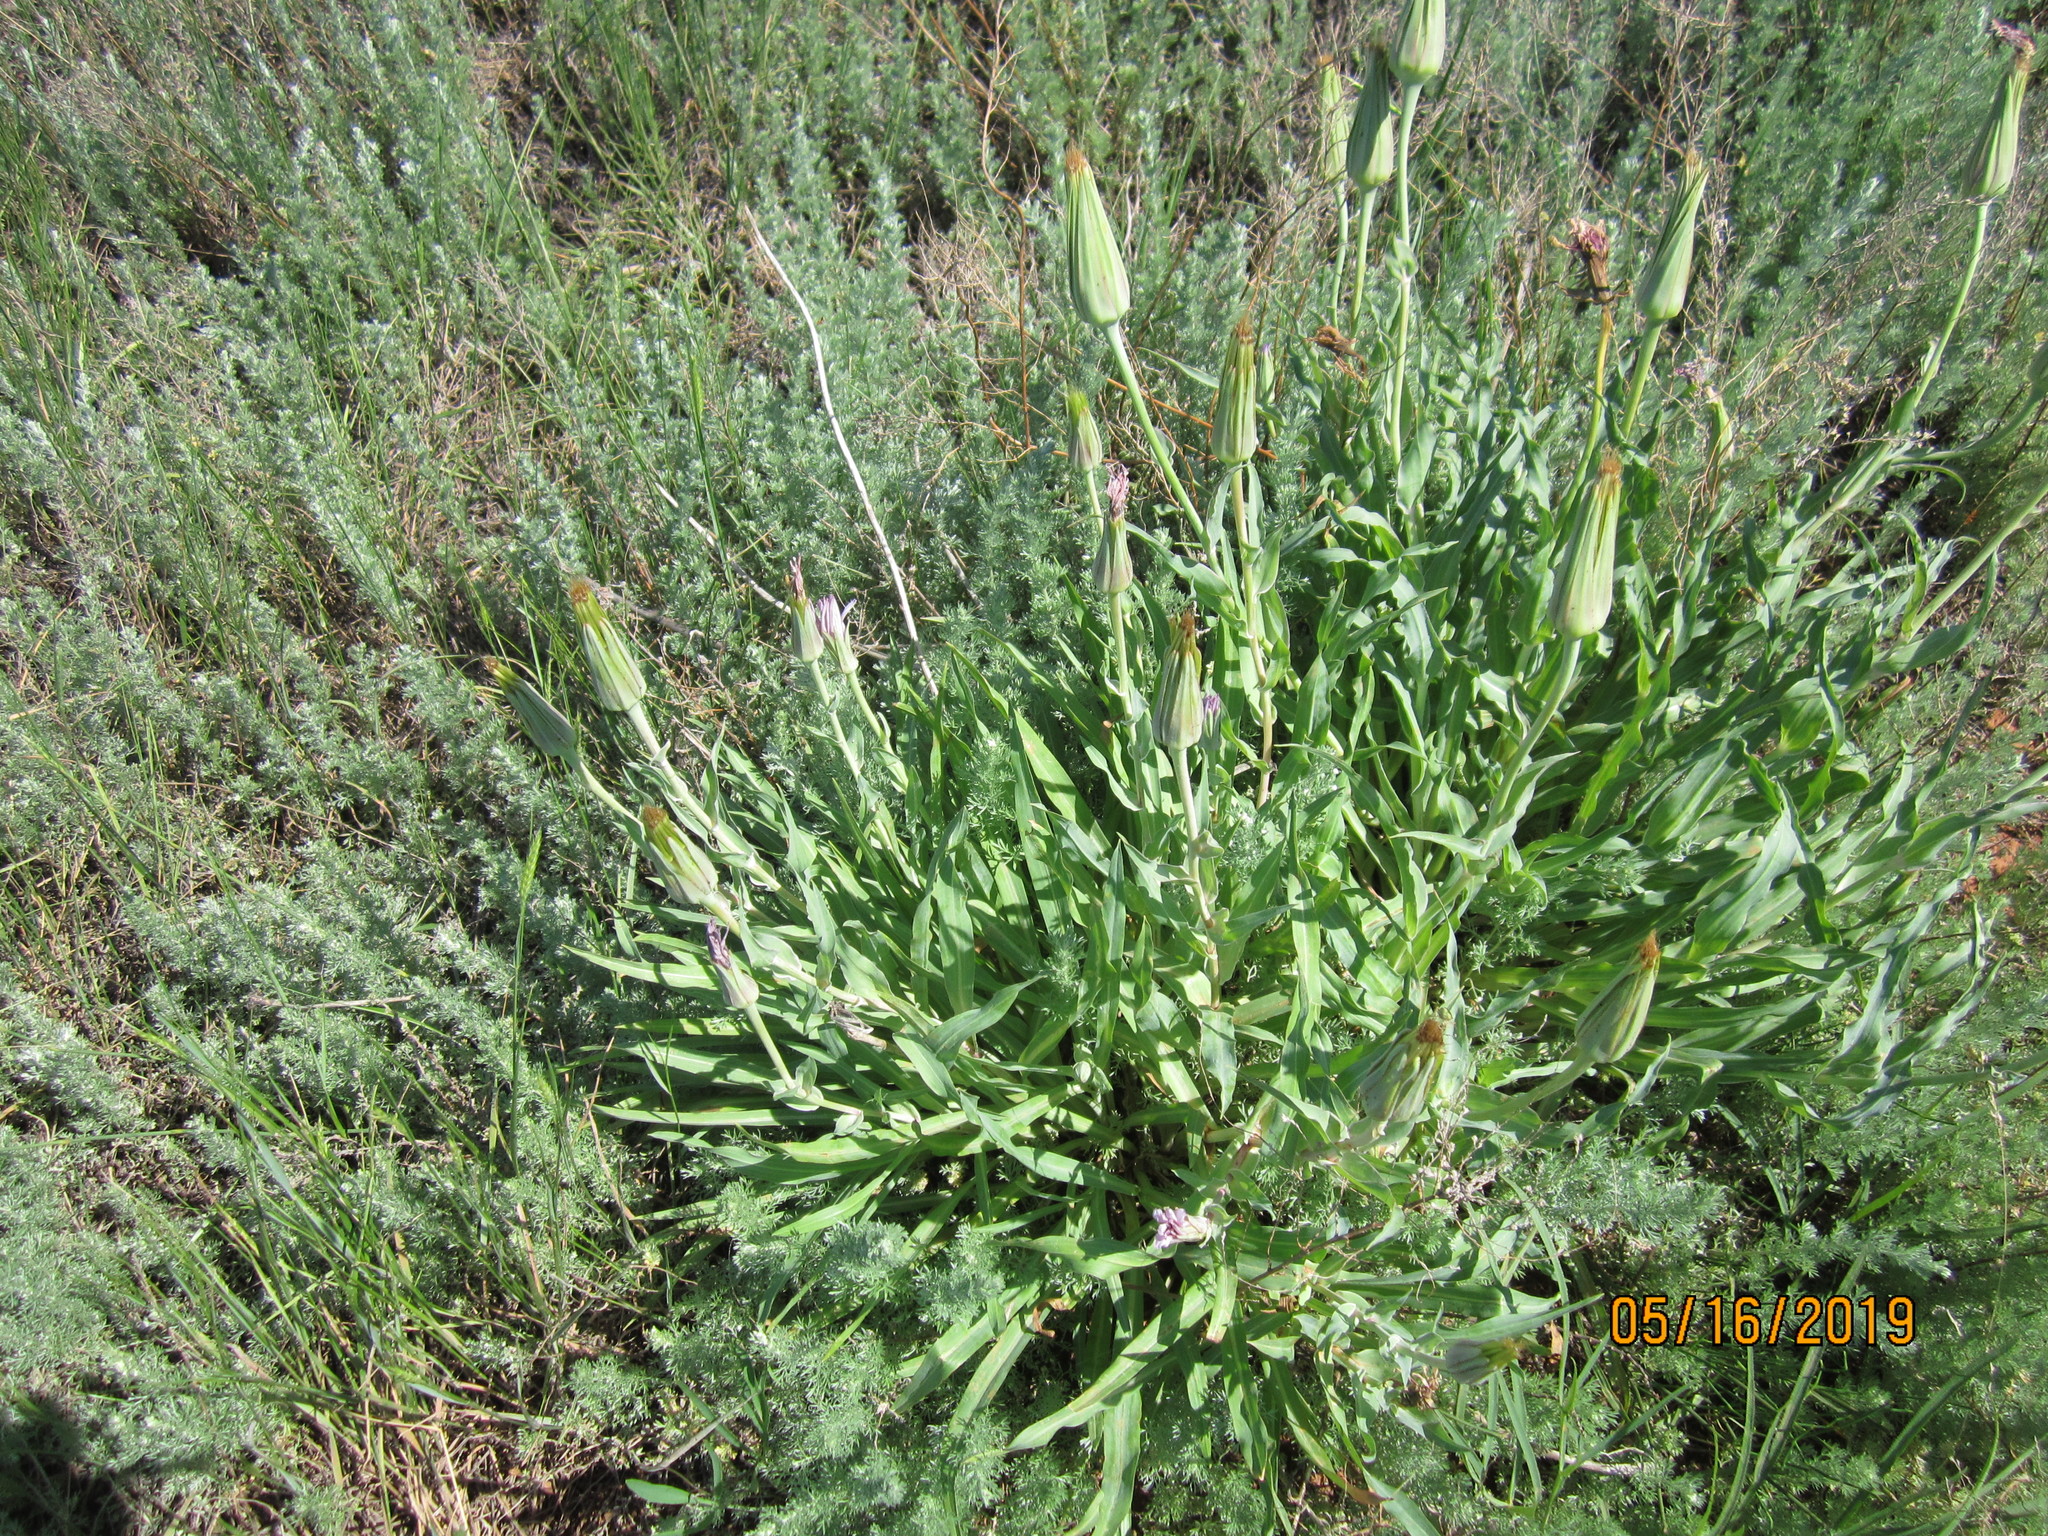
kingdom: Plantae
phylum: Tracheophyta
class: Magnoliopsida
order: Asterales
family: Asteraceae
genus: Tragopogon
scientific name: Tragopogon marginifolius
